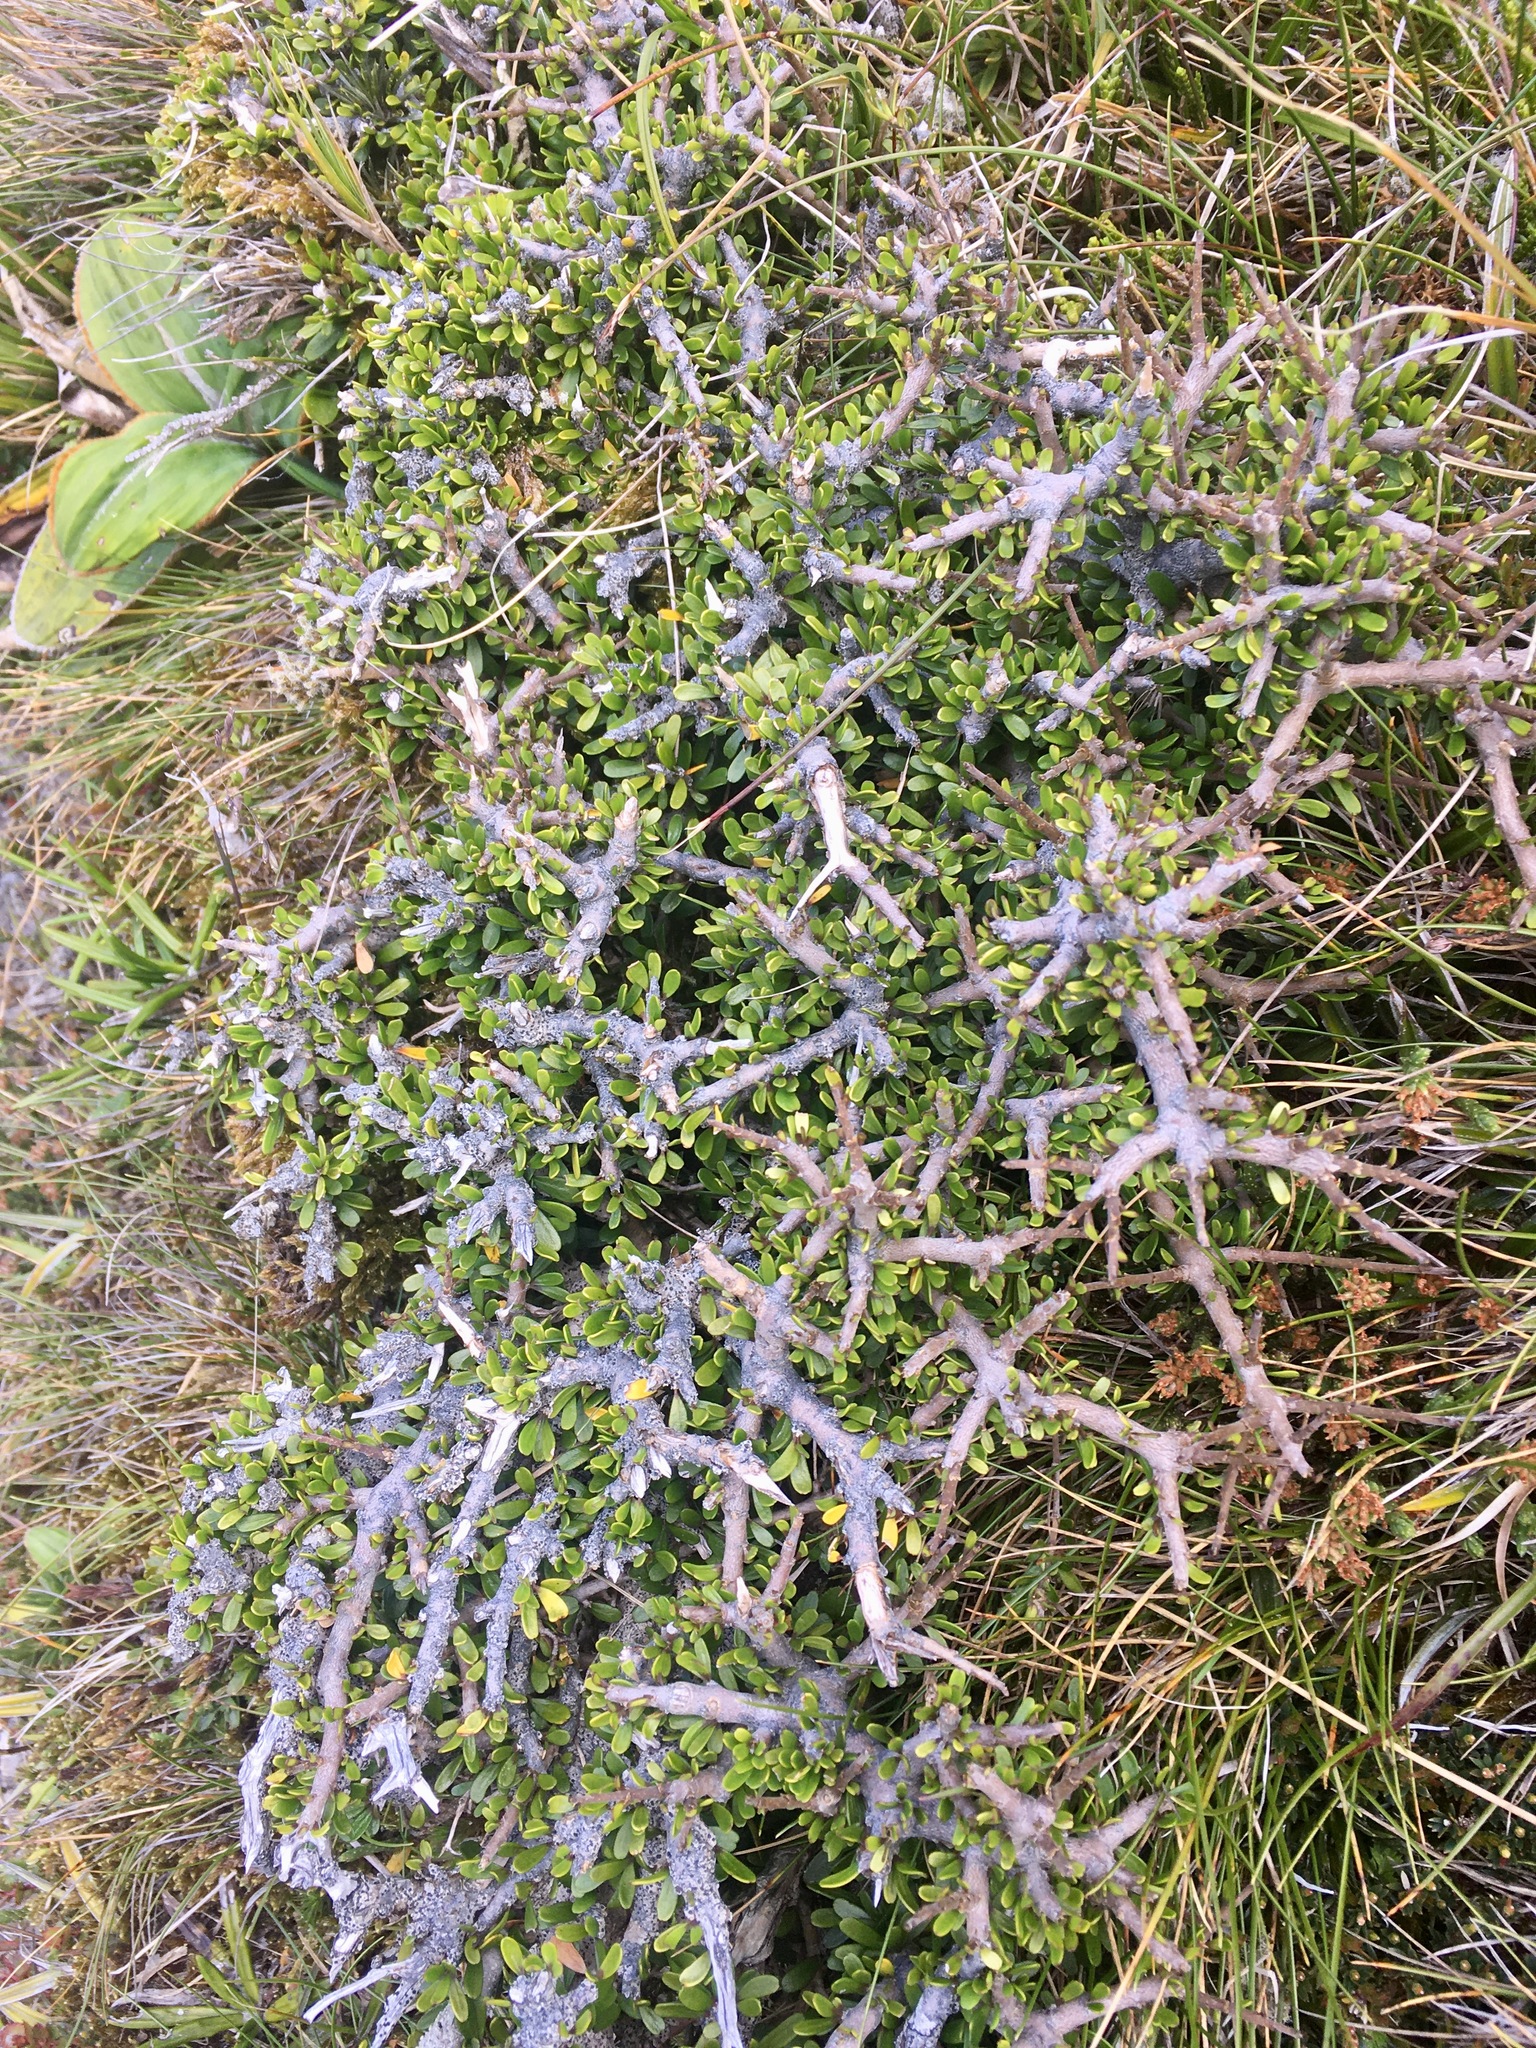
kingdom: Plantae
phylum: Tracheophyta
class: Magnoliopsida
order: Malpighiales
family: Violaceae
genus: Melicytus
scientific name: Melicytus alpinus
